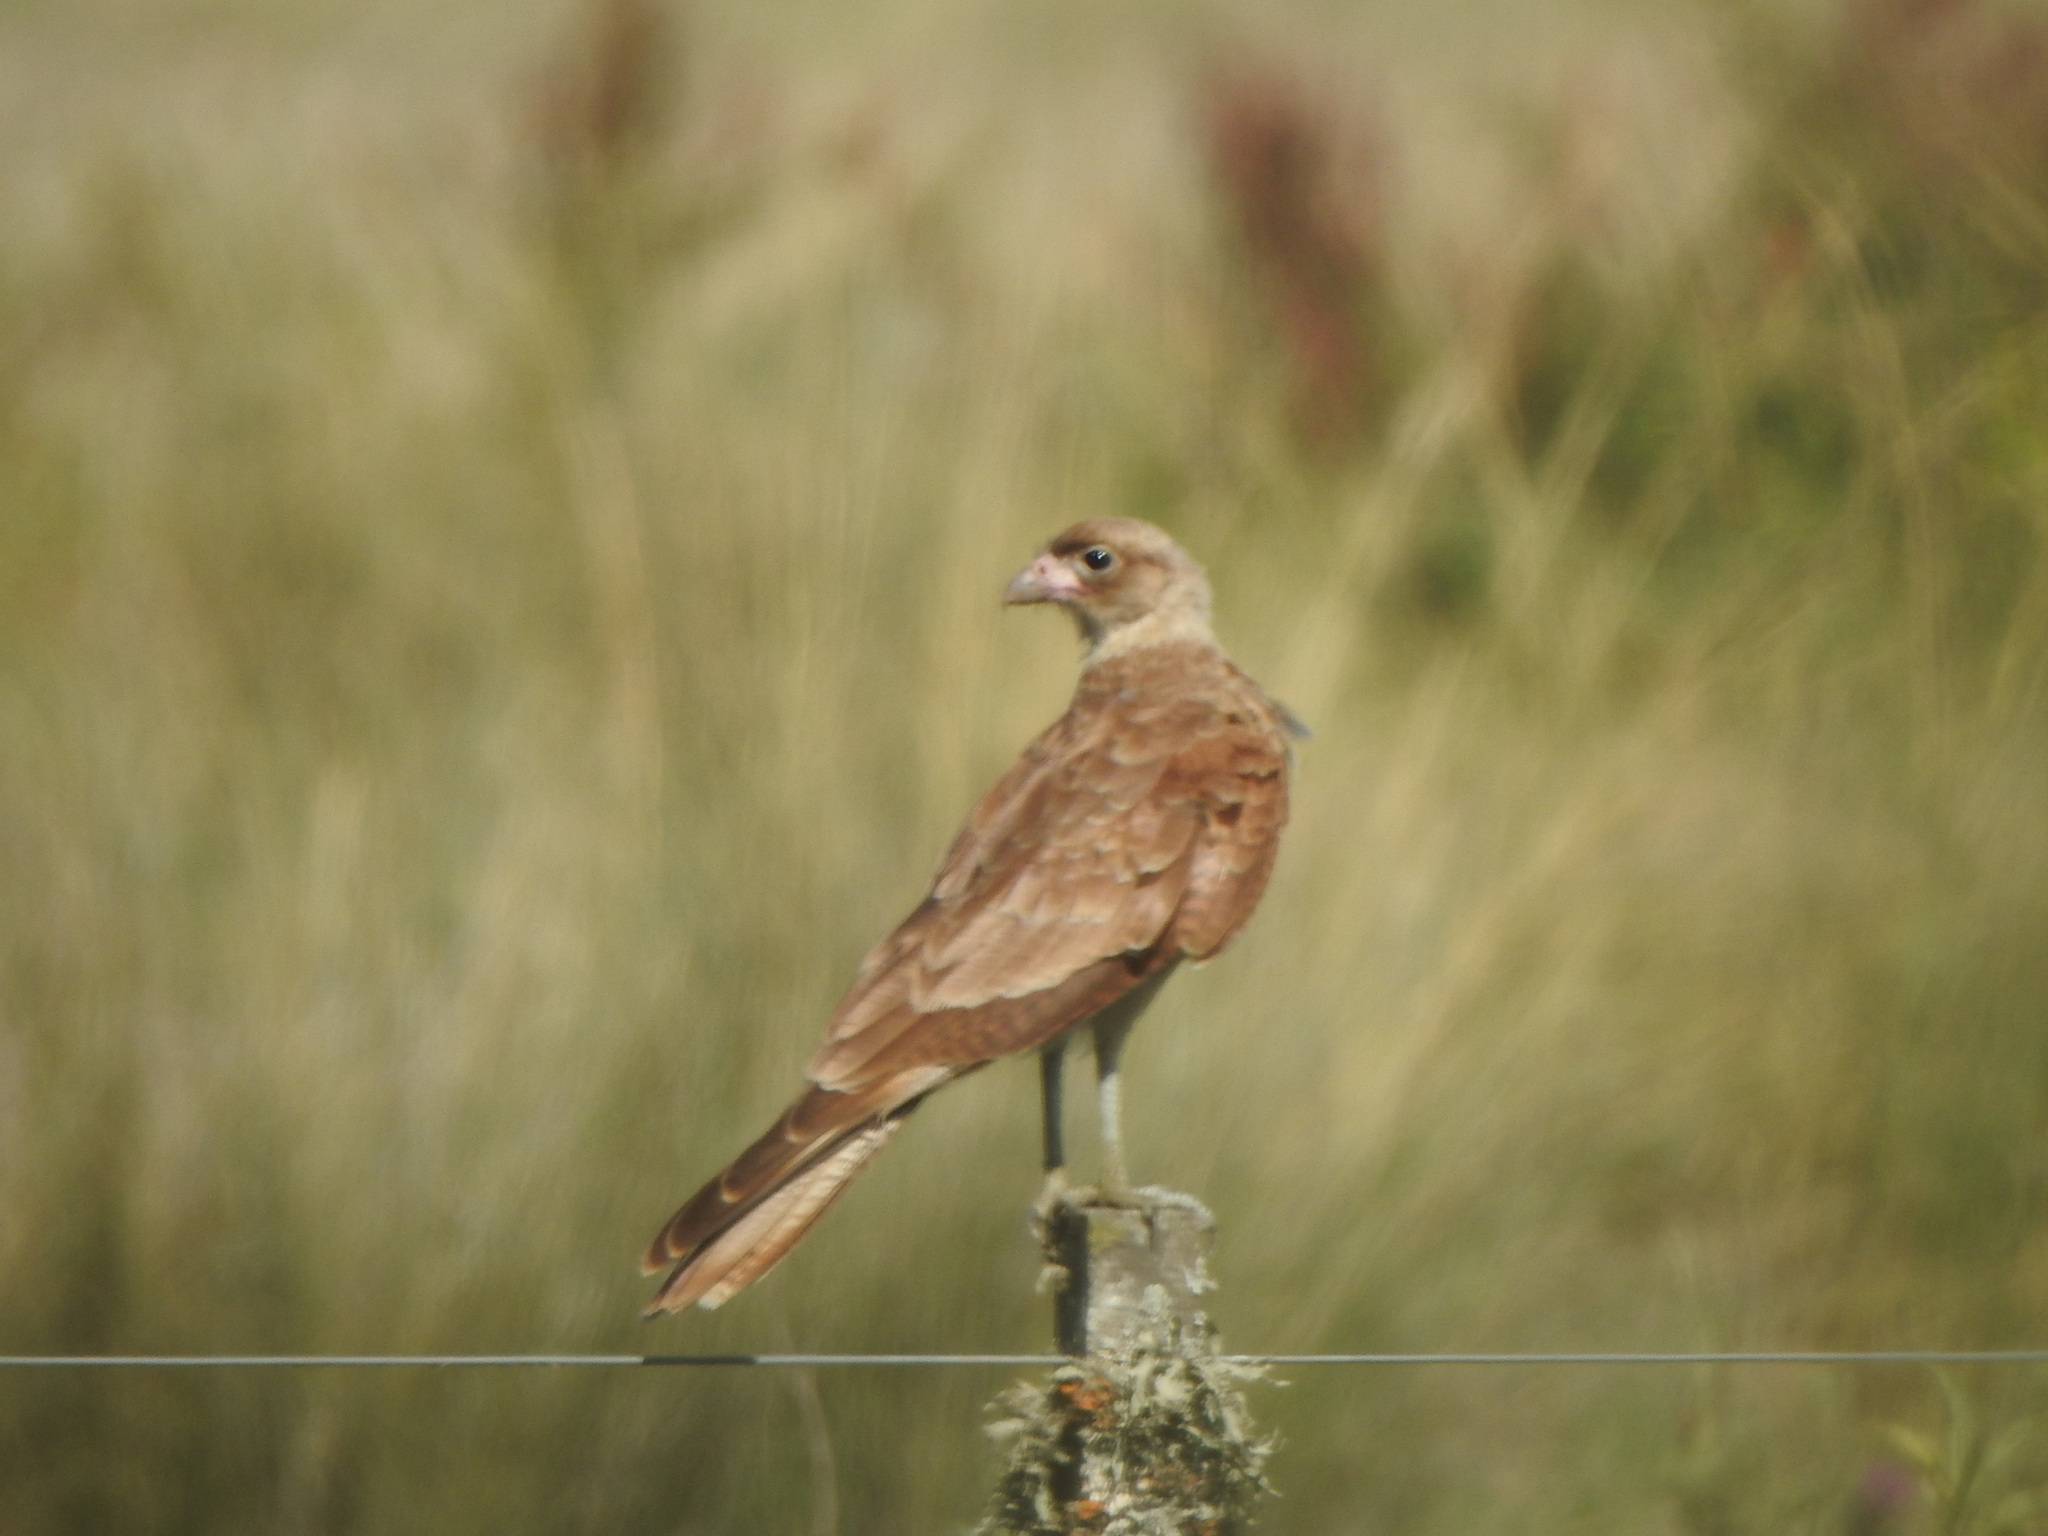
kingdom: Animalia
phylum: Chordata
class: Aves
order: Falconiformes
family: Falconidae
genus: Daptrius
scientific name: Daptrius
